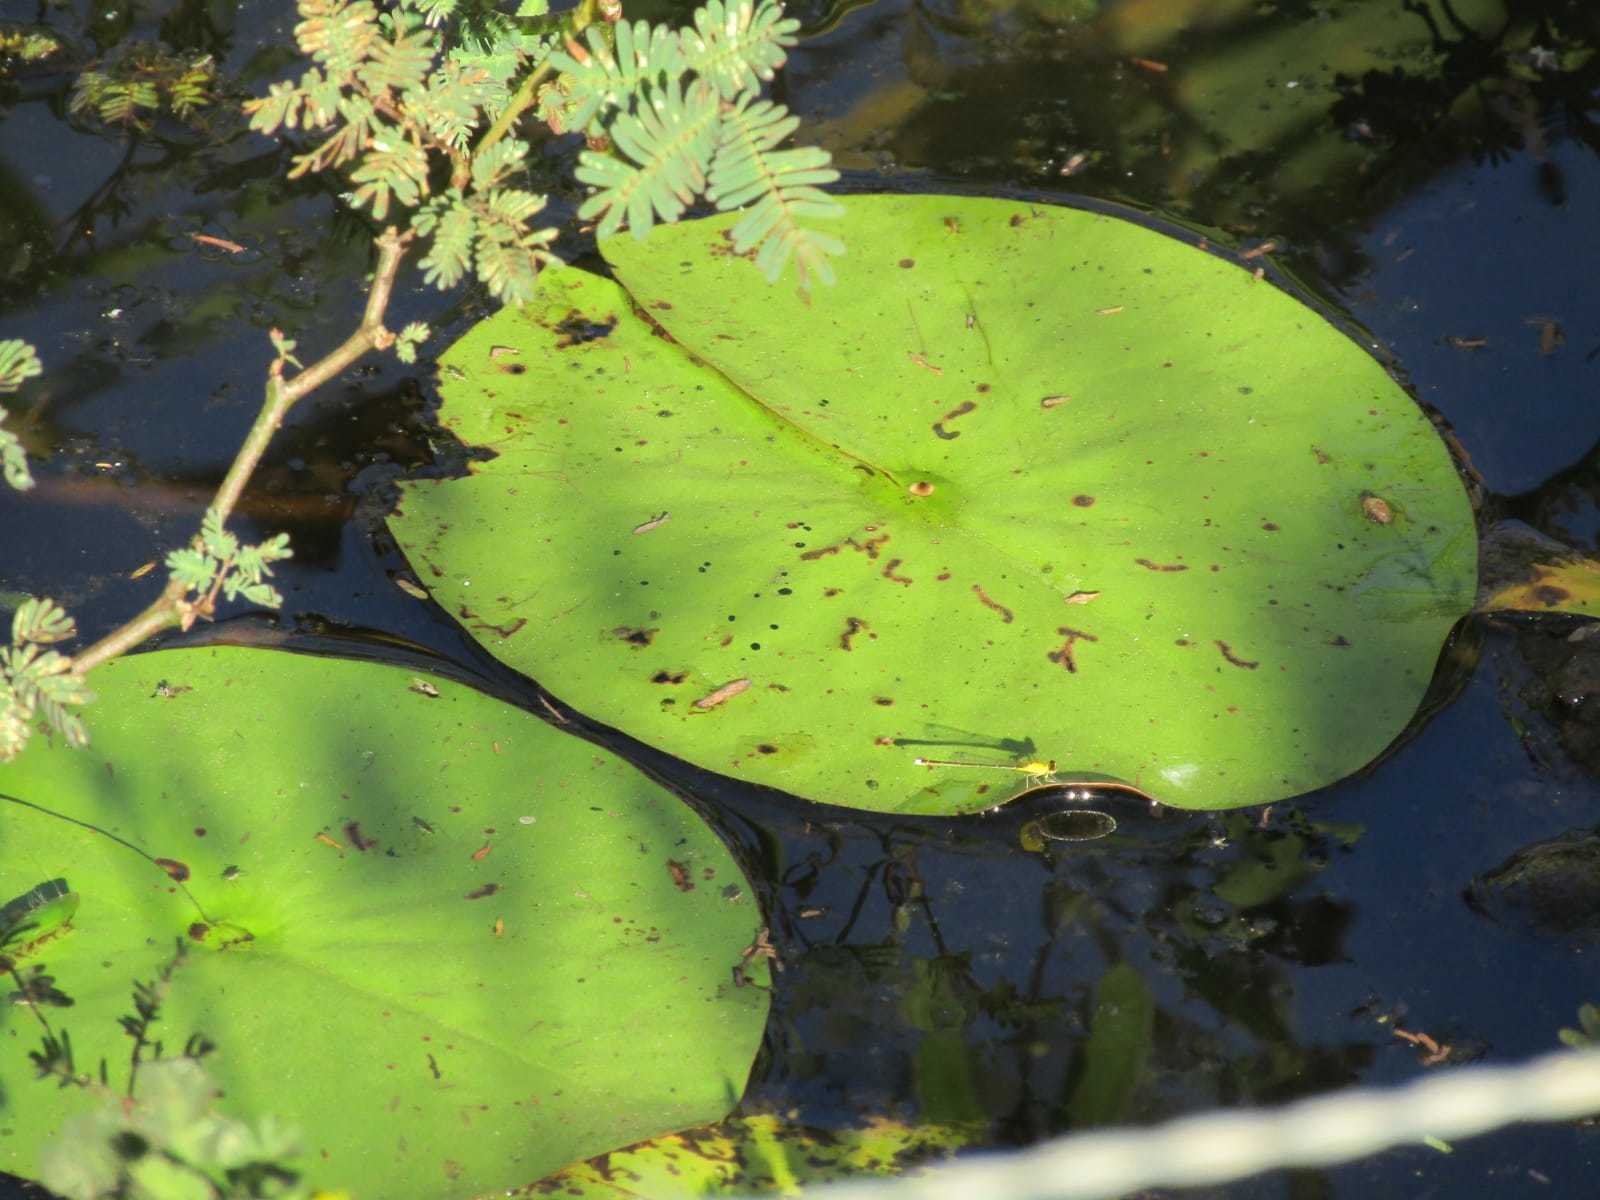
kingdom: Plantae
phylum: Tracheophyta
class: Magnoliopsida
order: Nymphaeales
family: Nymphaeaceae
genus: Nymphaea
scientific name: Nymphaea caatingae
